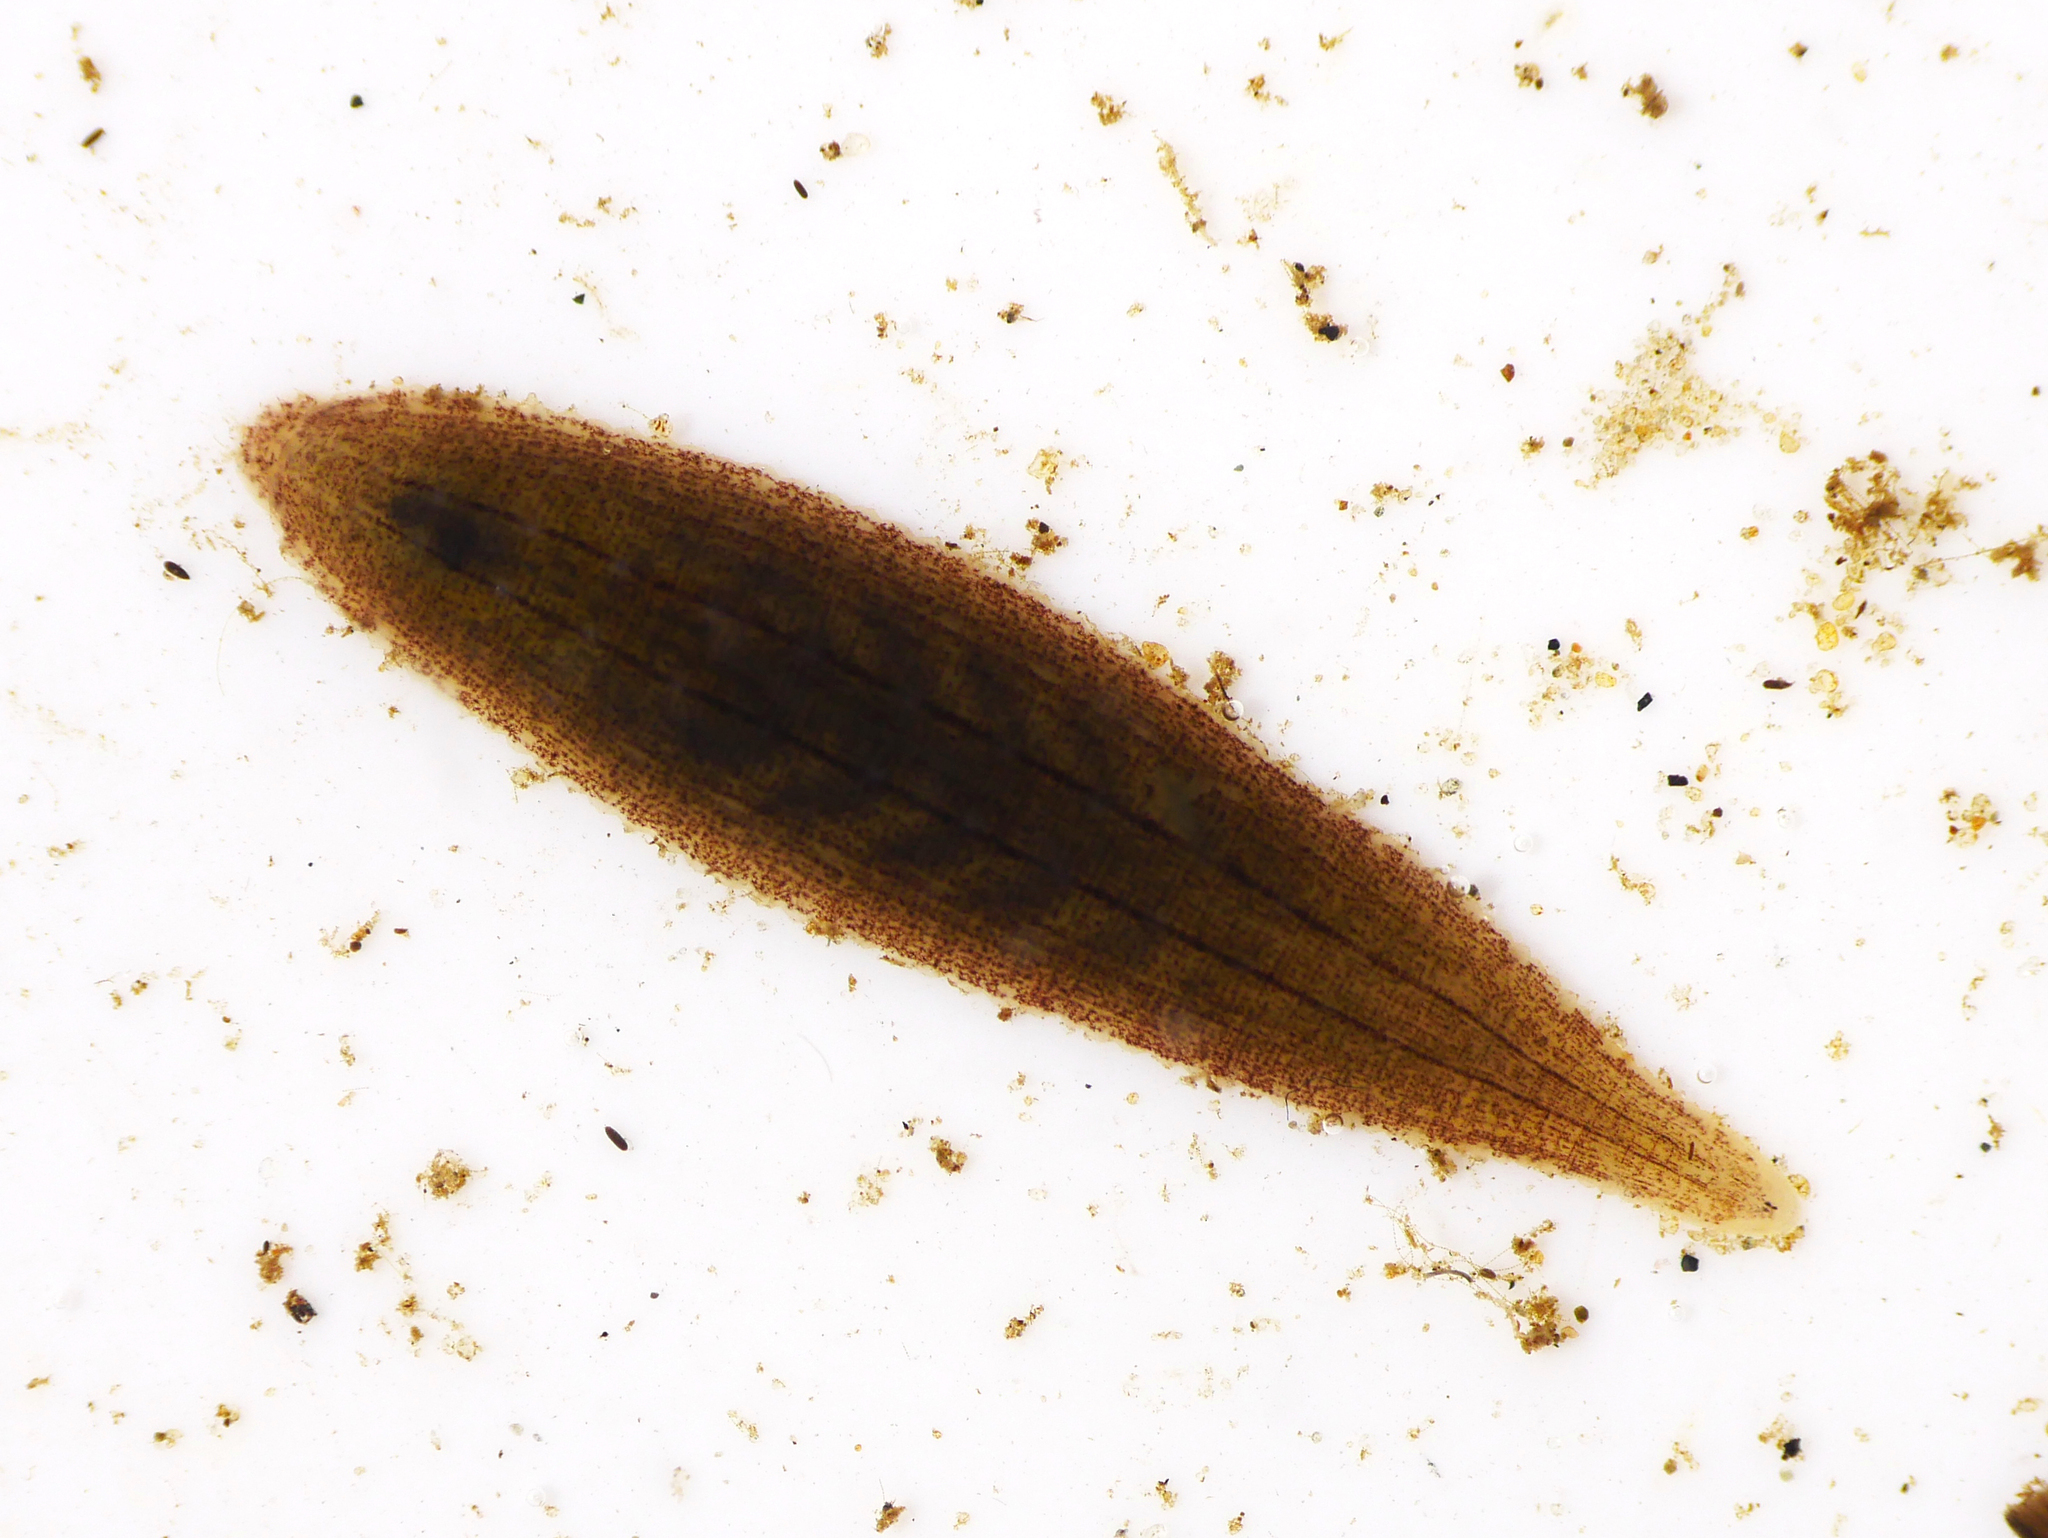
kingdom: Animalia
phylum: Annelida
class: Clitellata
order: Rhynchobdellida
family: Glossiphoniidae
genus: Glossiphonia
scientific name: Glossiphonia complanata
